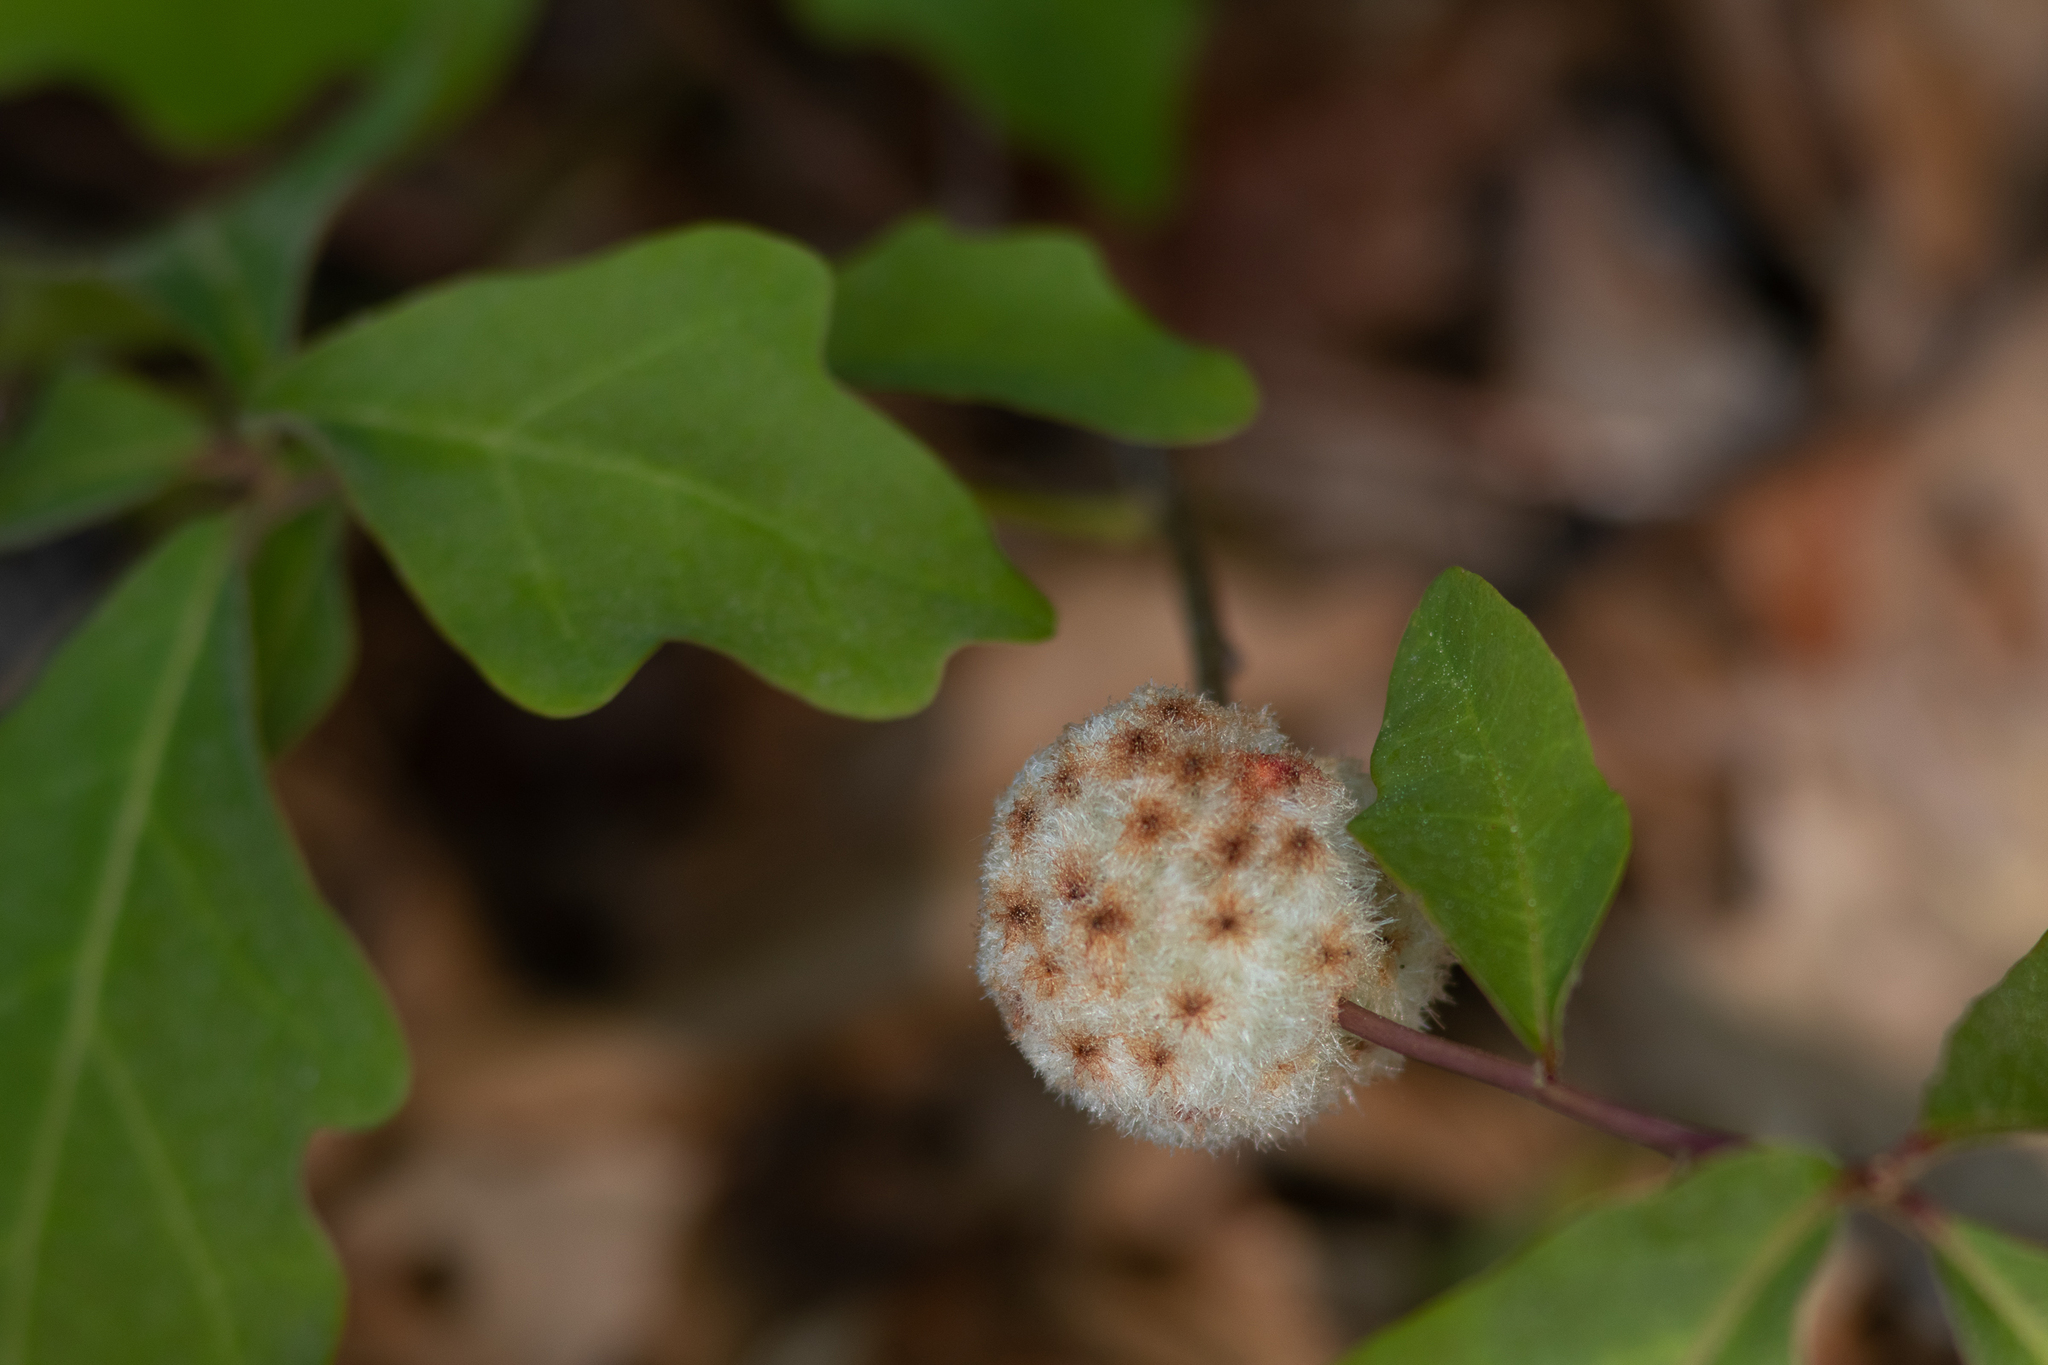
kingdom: Animalia
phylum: Arthropoda
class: Insecta
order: Hymenoptera
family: Cynipidae
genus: Callirhytis
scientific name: Callirhytis
